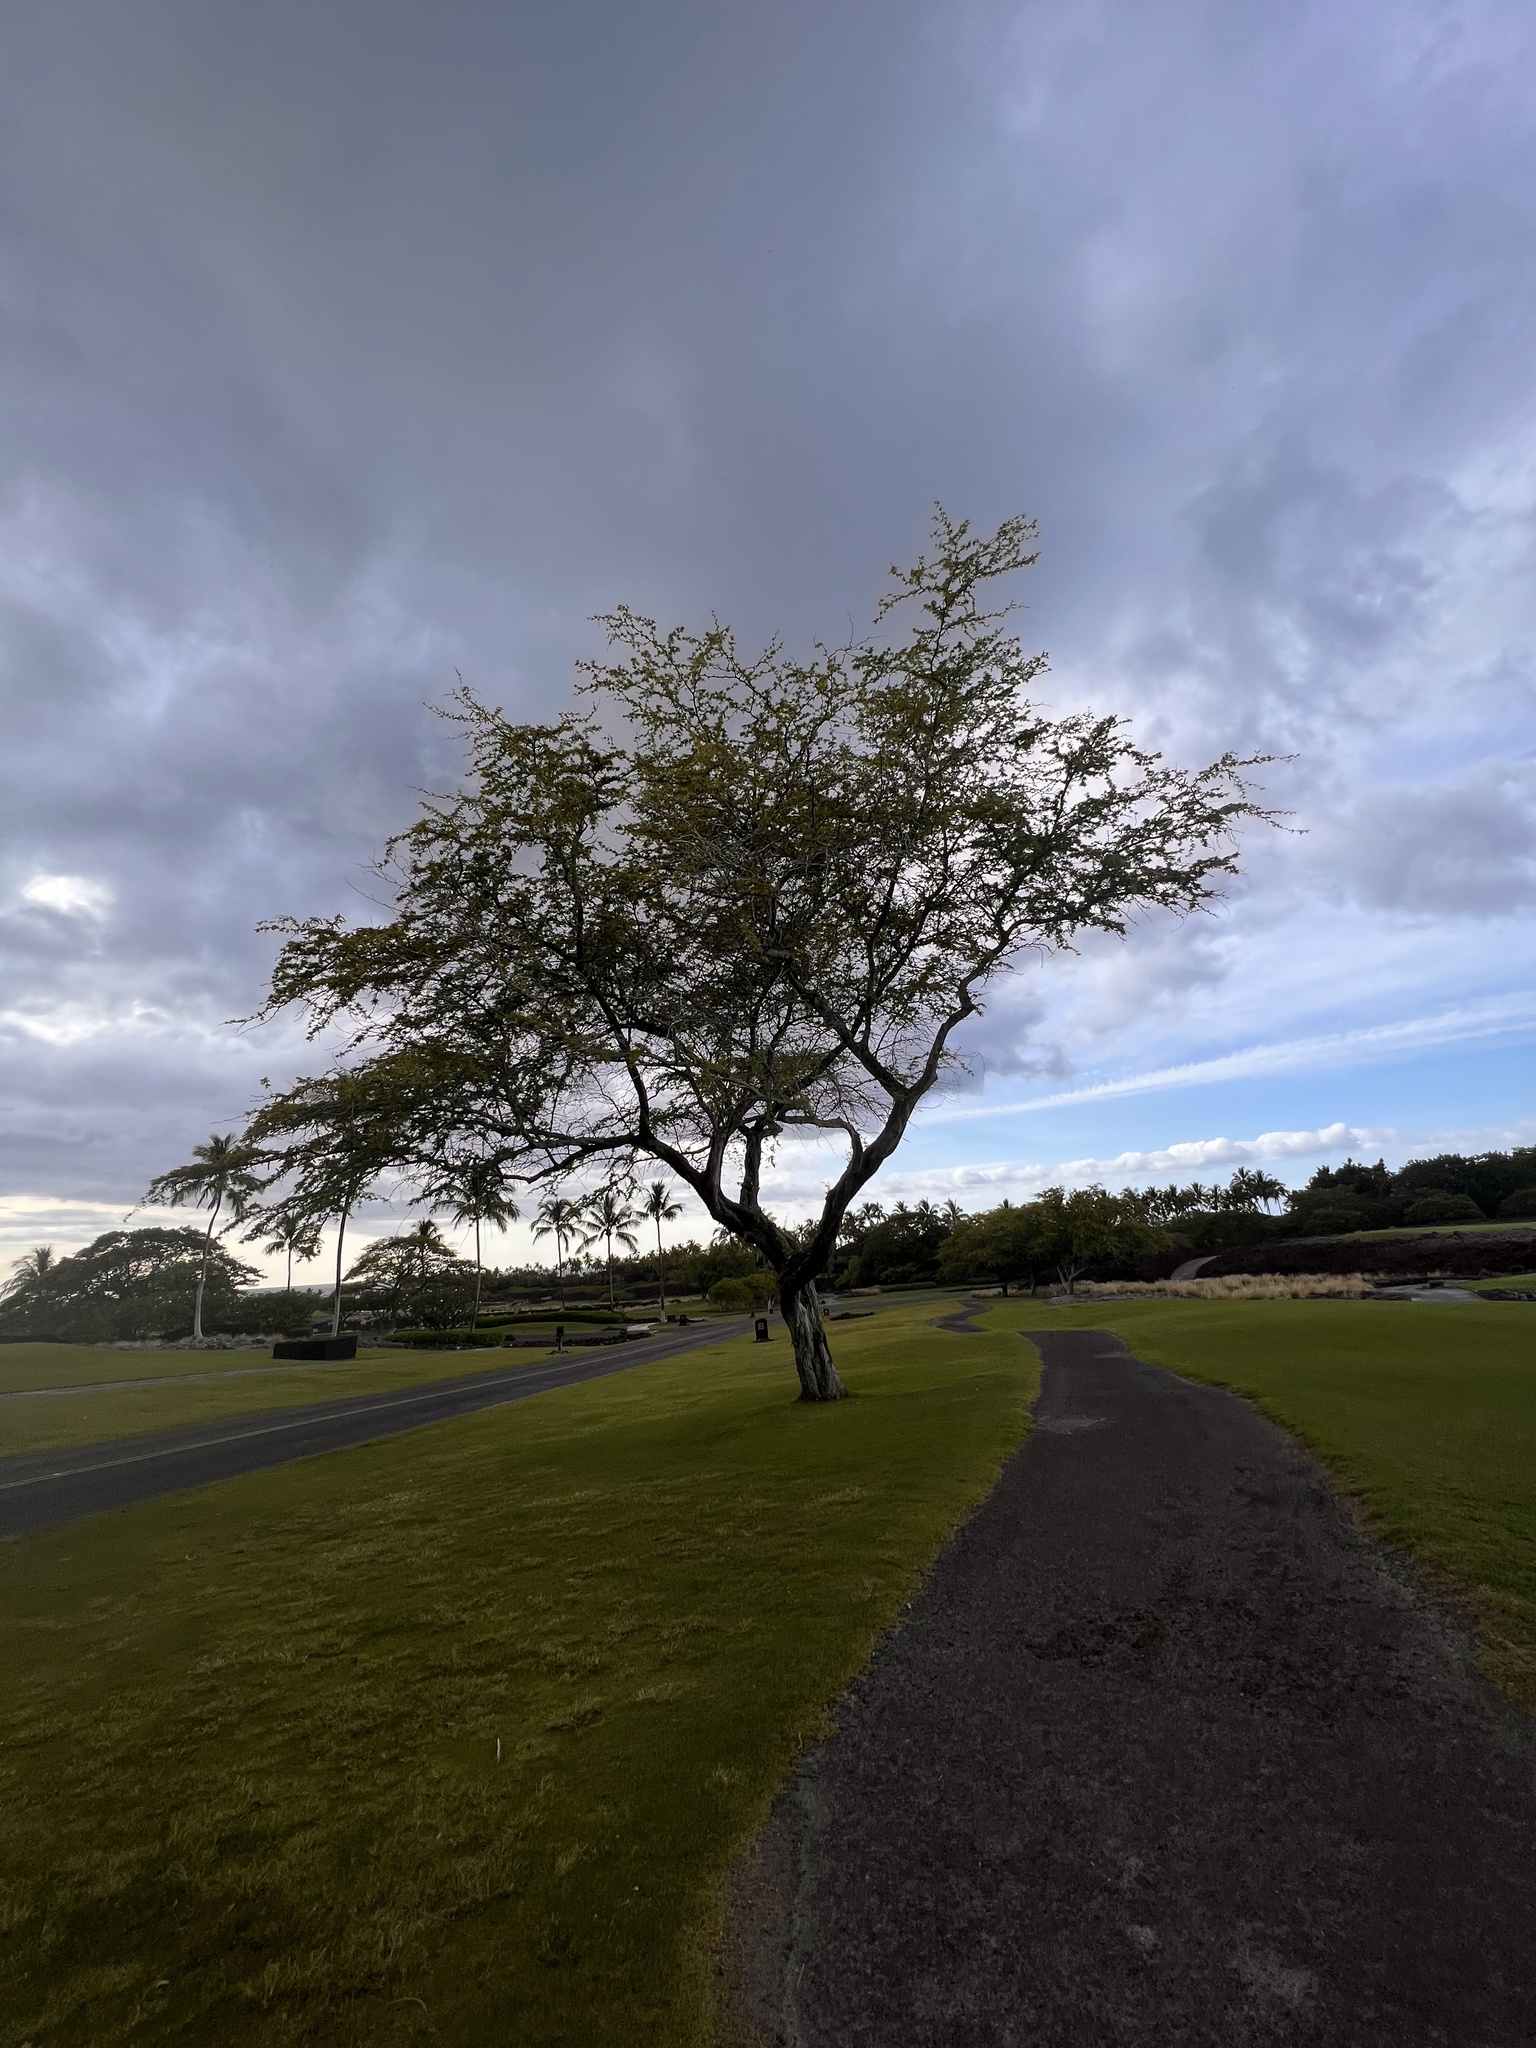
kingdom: Plantae
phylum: Tracheophyta
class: Magnoliopsida
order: Fabales
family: Fabaceae
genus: Prosopis
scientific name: Prosopis pallida
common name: Mesquite
